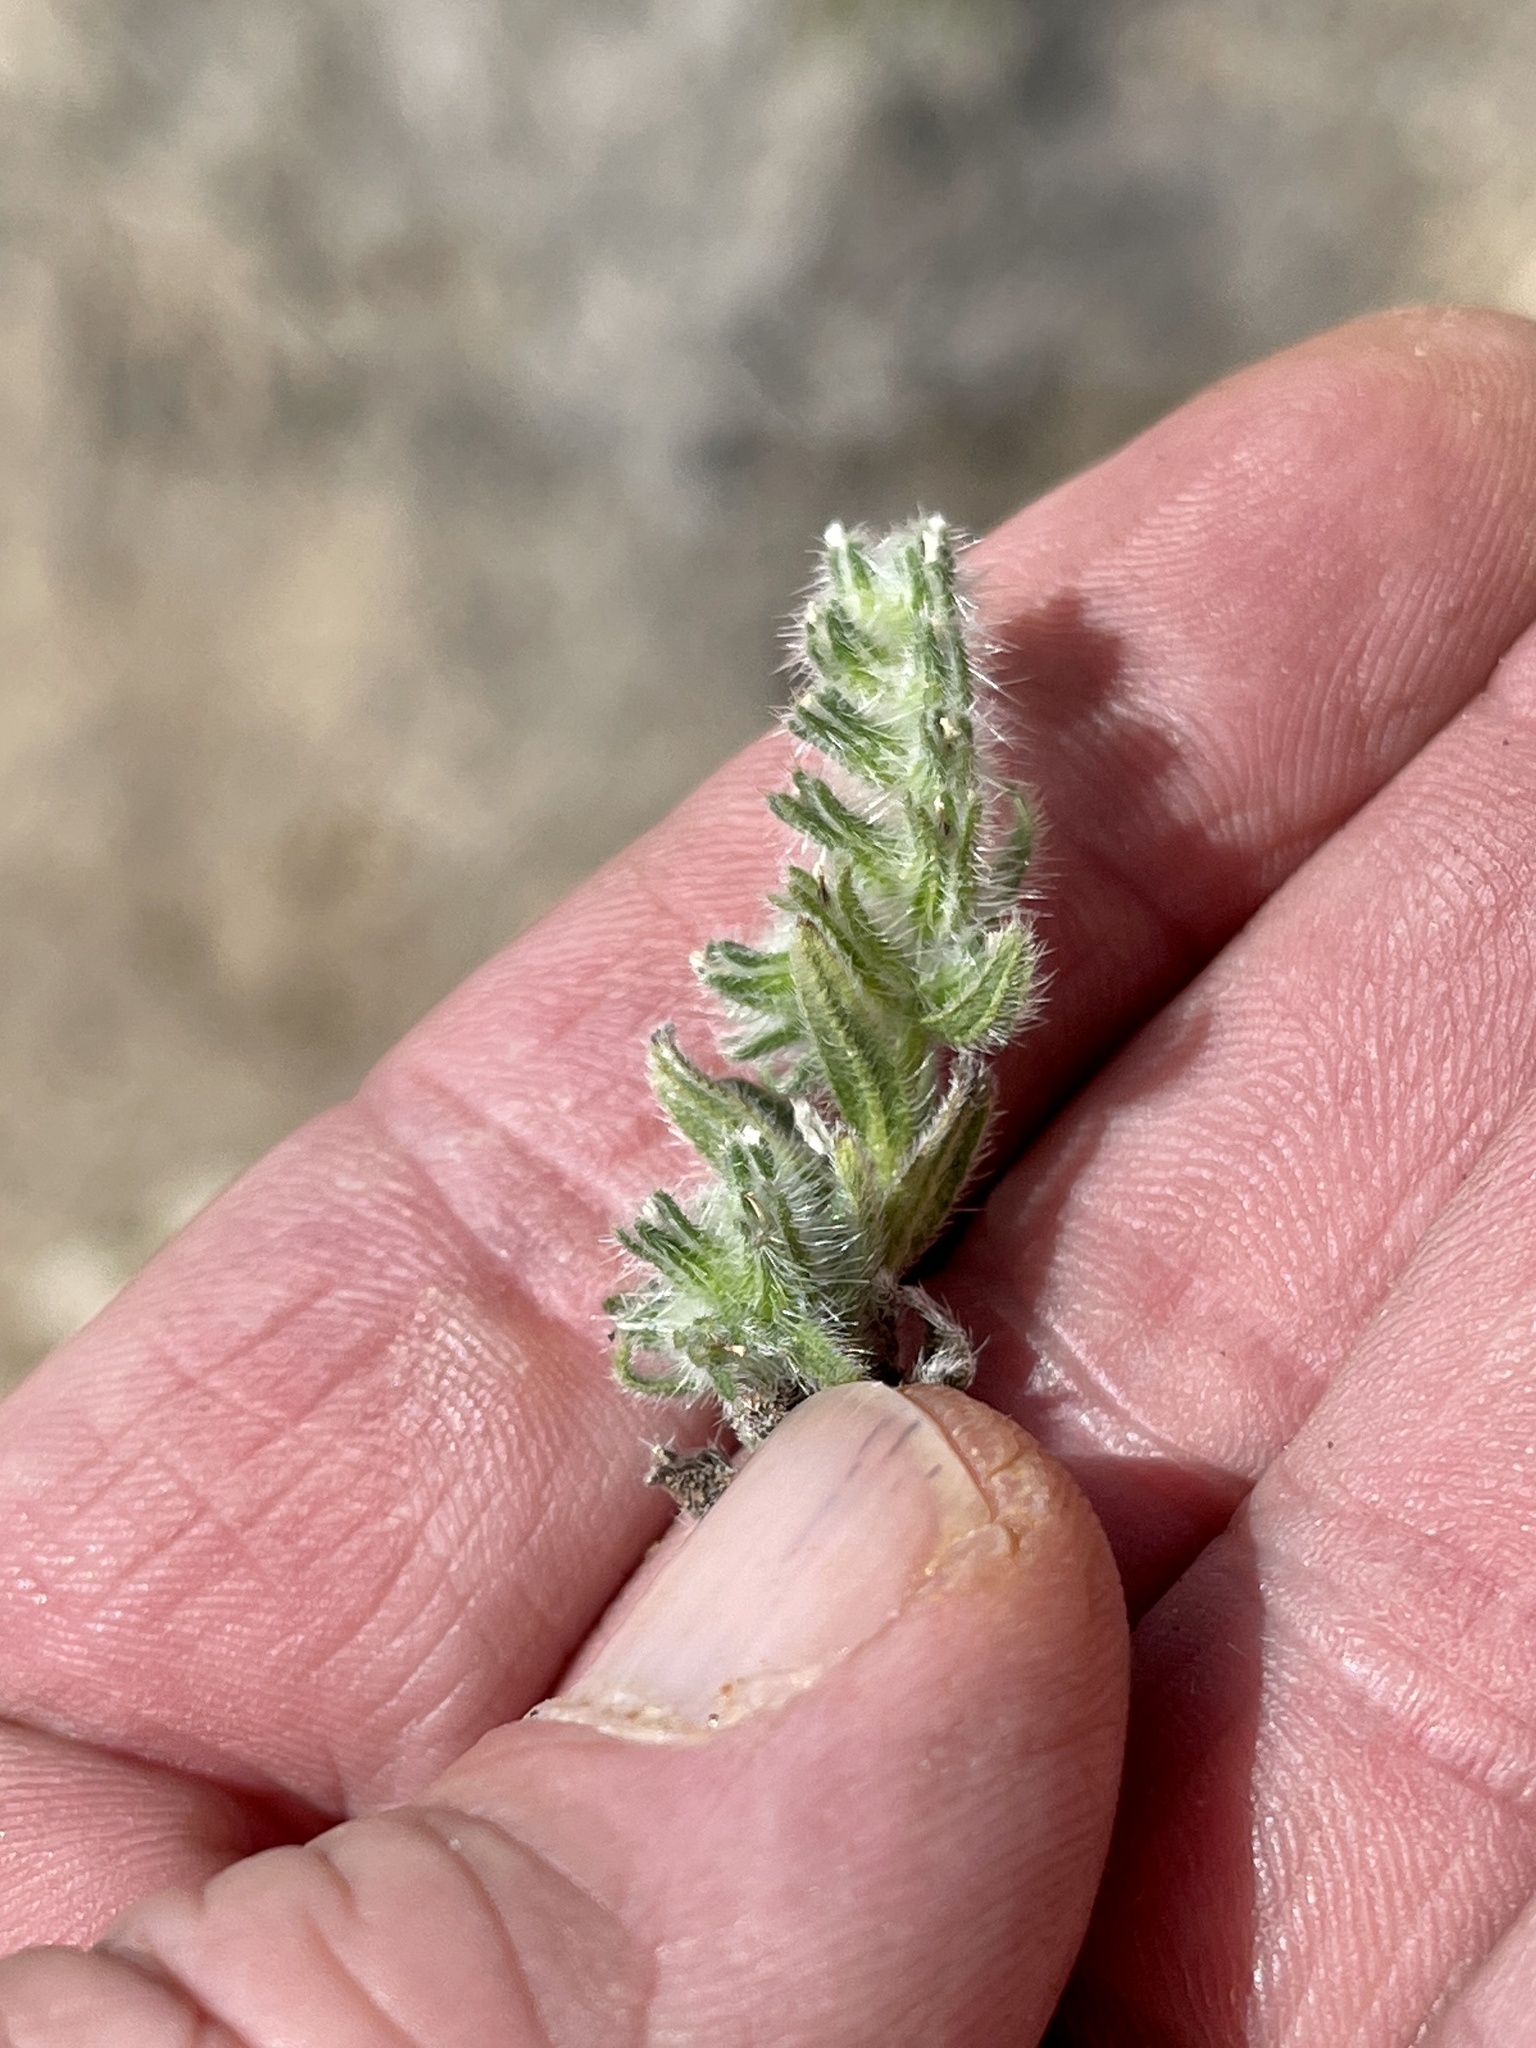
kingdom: Plantae
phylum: Tracheophyta
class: Magnoliopsida
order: Boraginales
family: Boraginaceae
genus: Cryptantha
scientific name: Cryptantha barbigera
